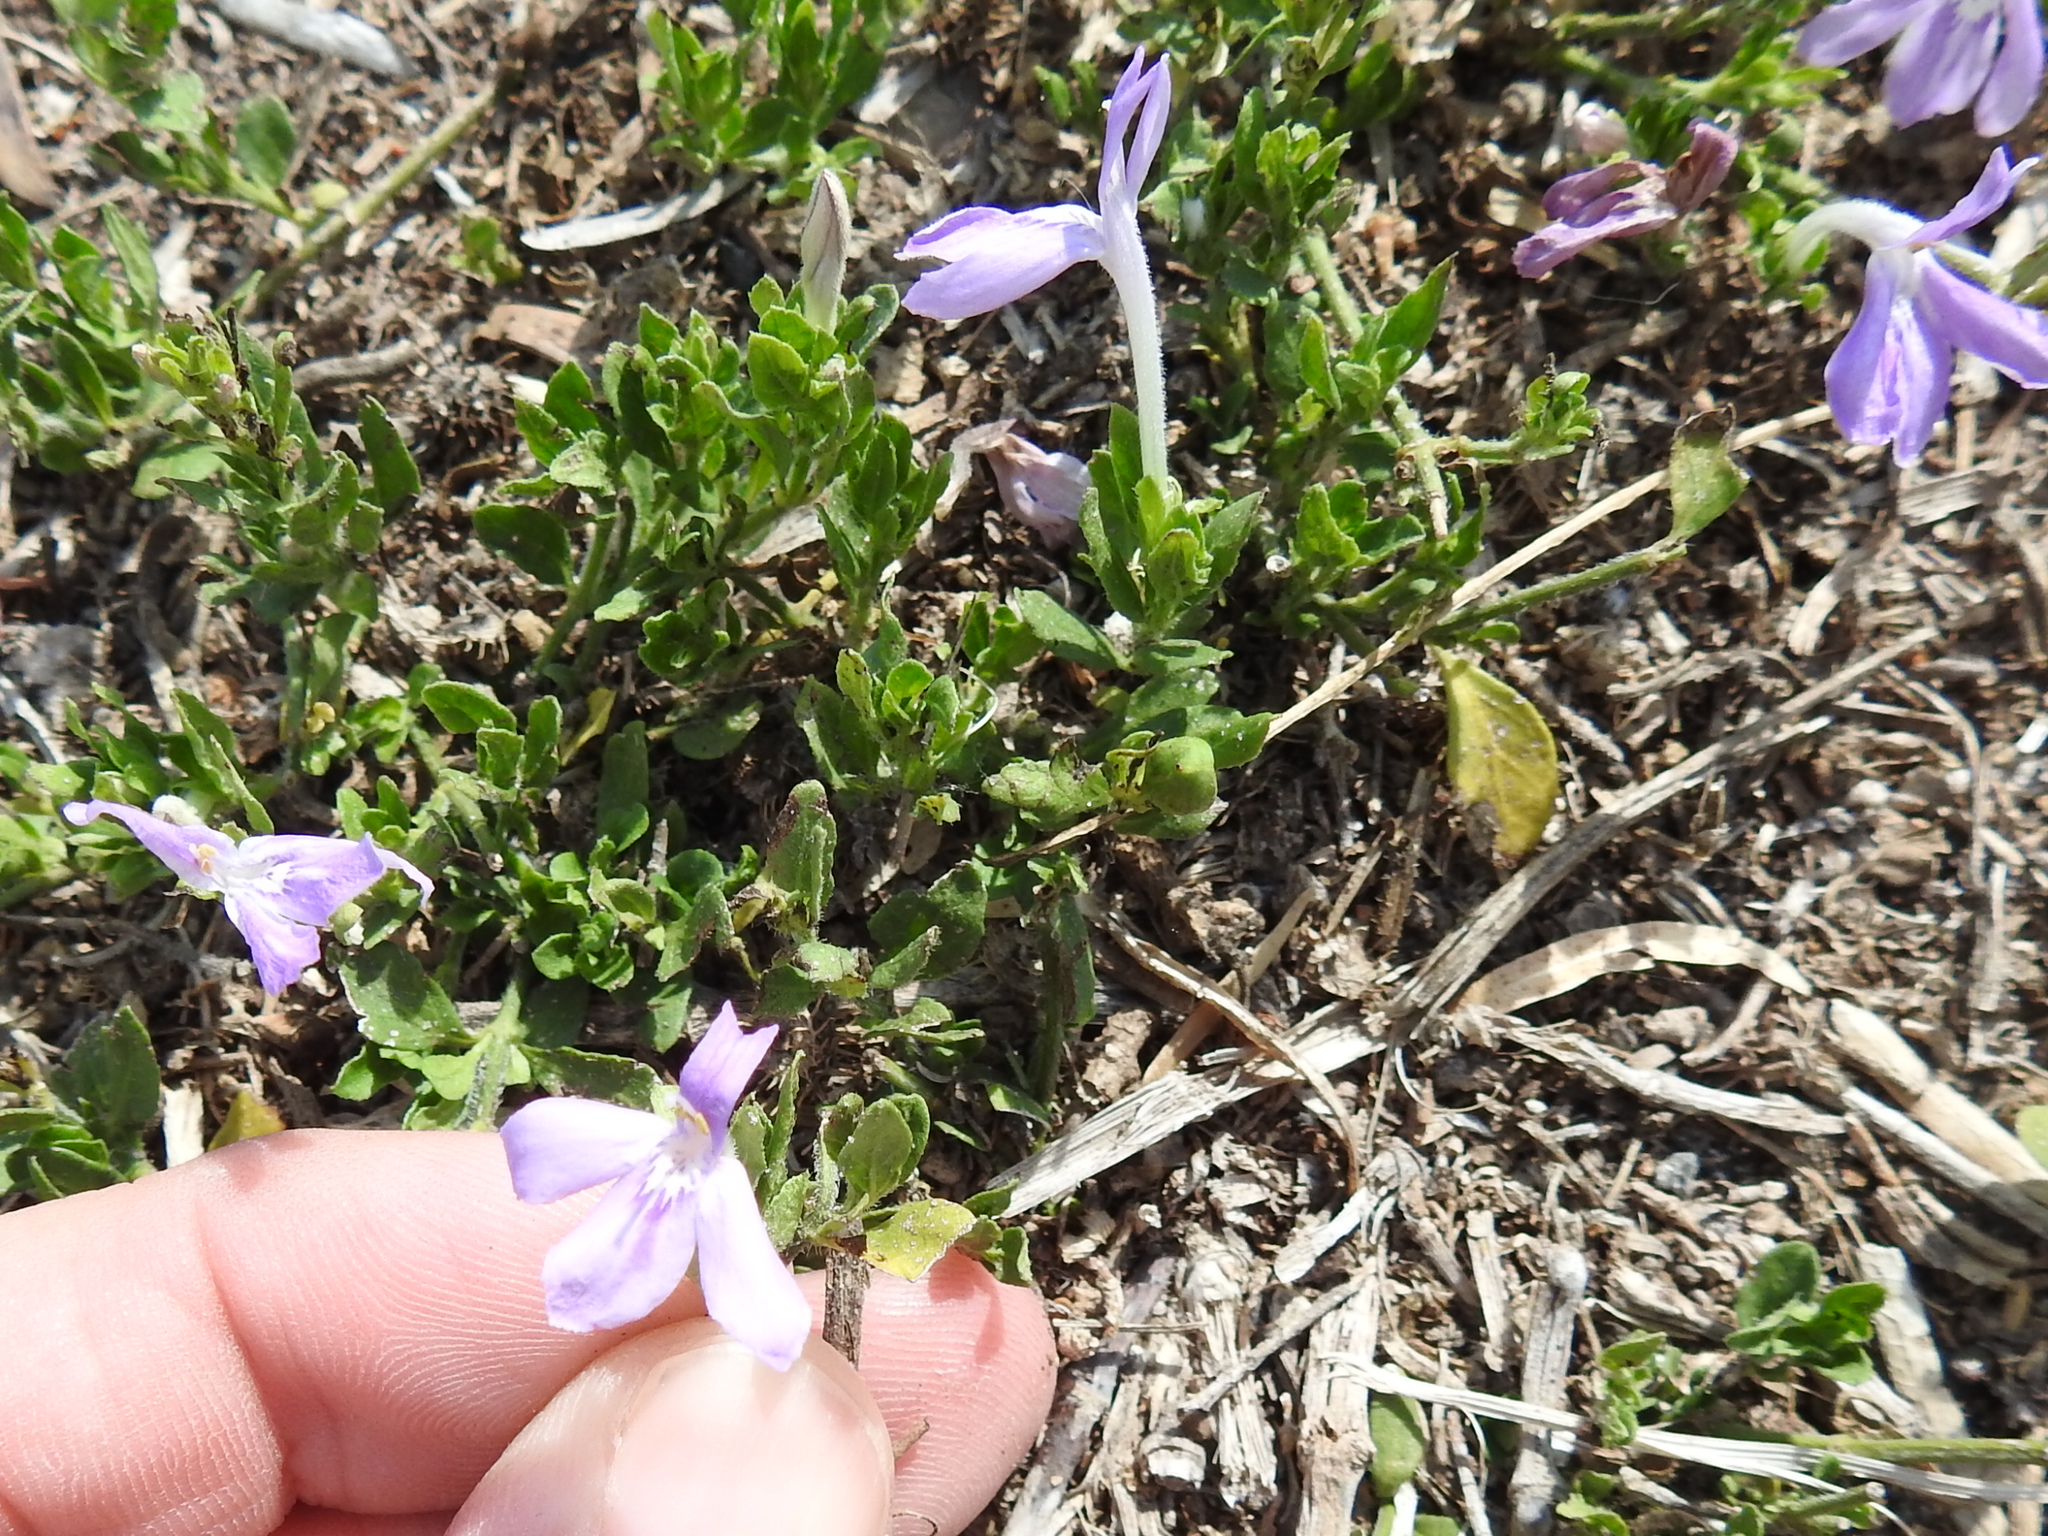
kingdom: Plantae
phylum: Tracheophyta
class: Magnoliopsida
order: Lamiales
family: Acanthaceae
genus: Justicia
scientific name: Justicia pilosella
